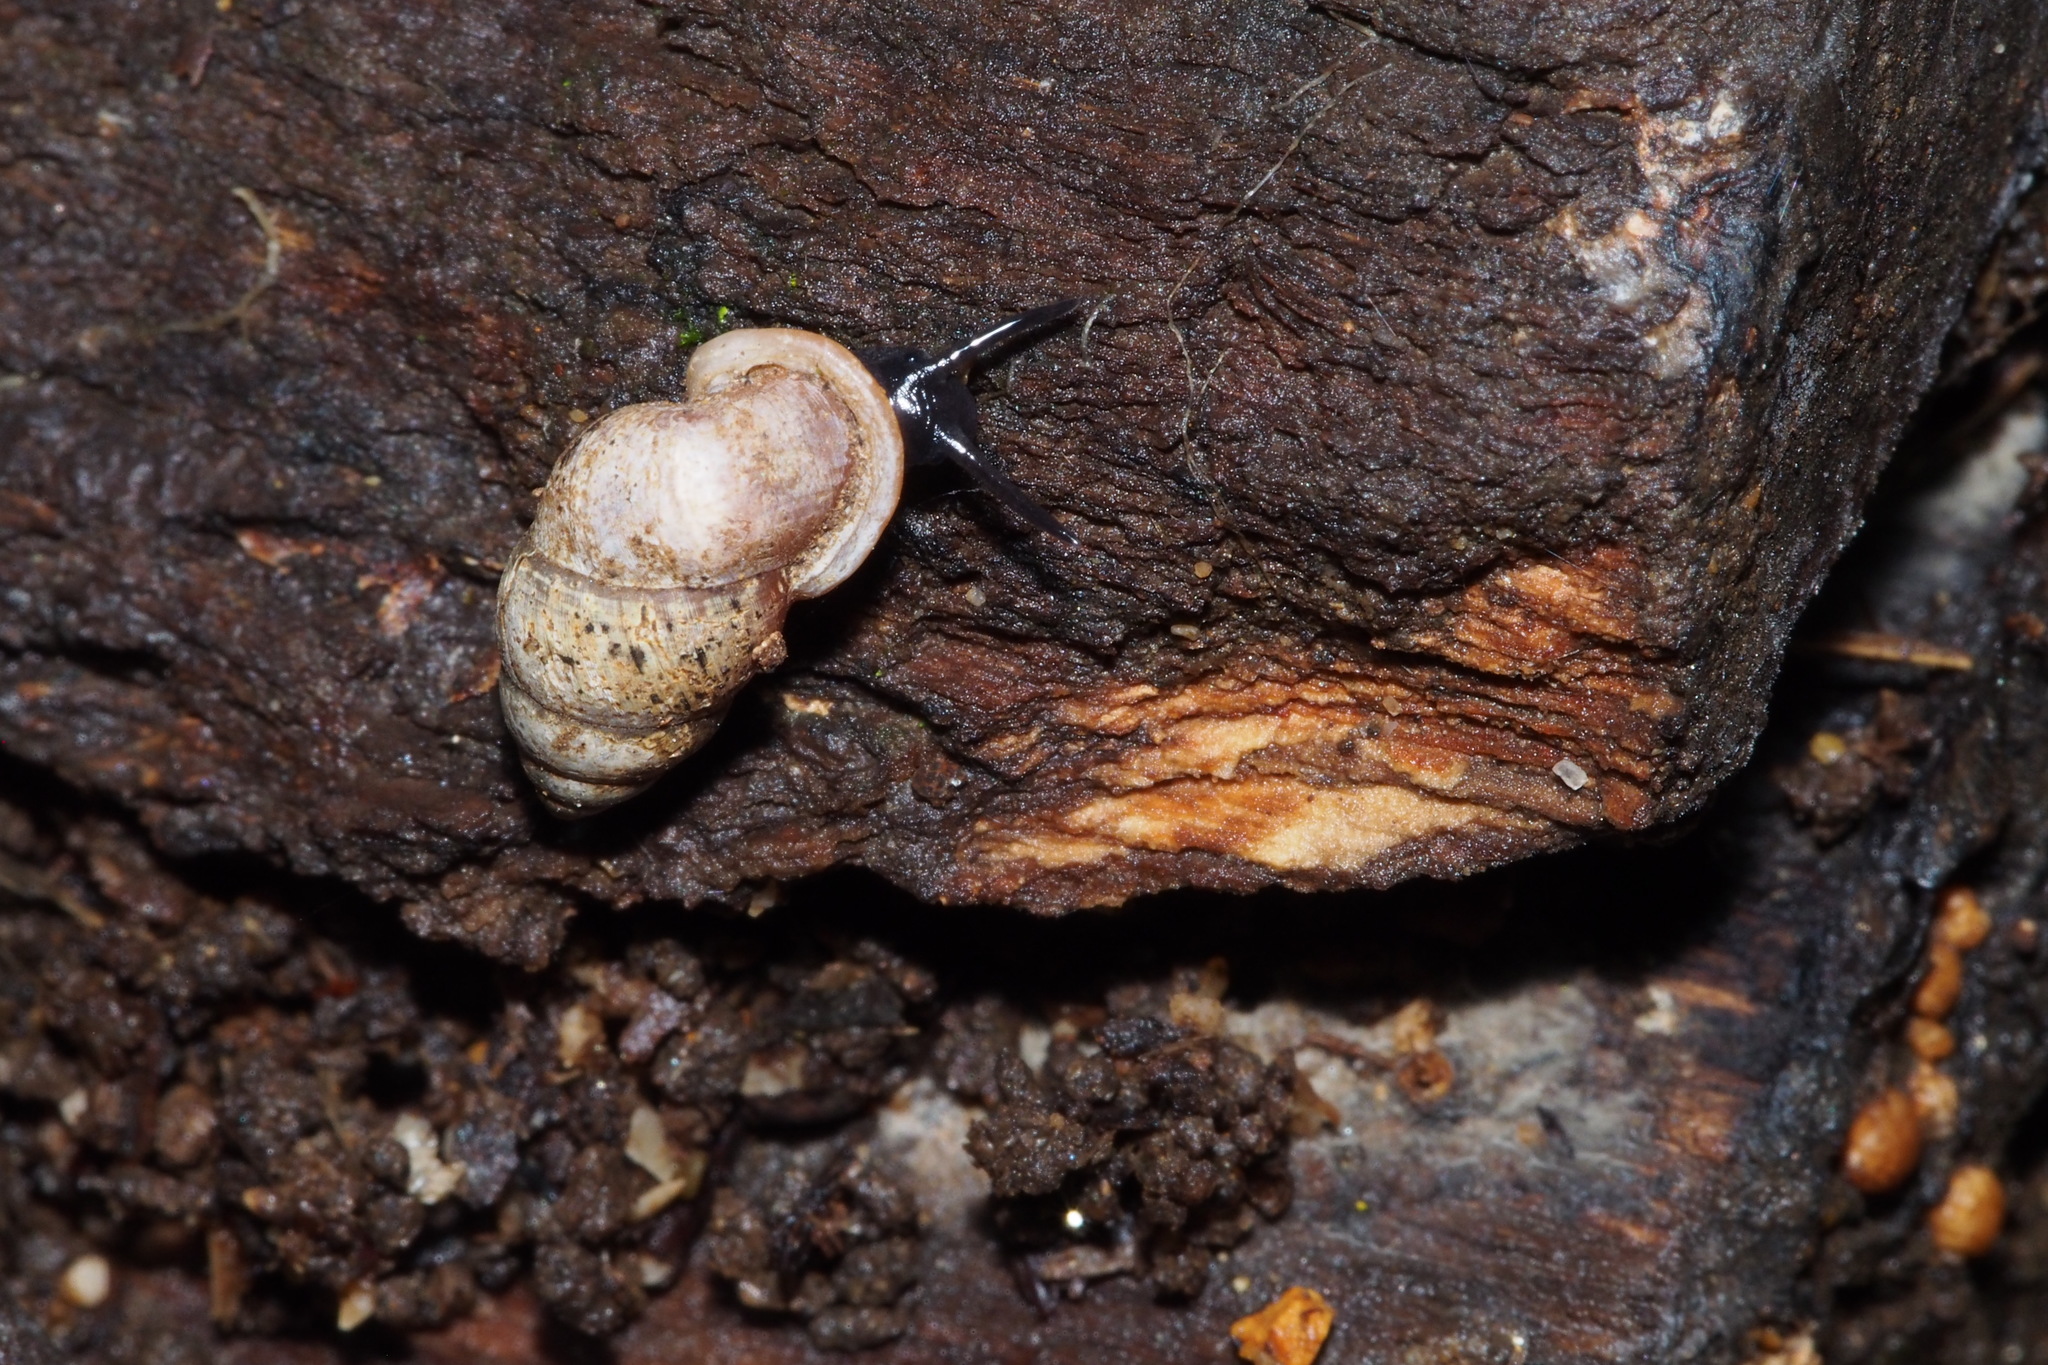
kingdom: Animalia
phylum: Mollusca
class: Gastropoda
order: Architaenioglossa
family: Pupinidae
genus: Pupinella
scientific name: Pupinella rufa
